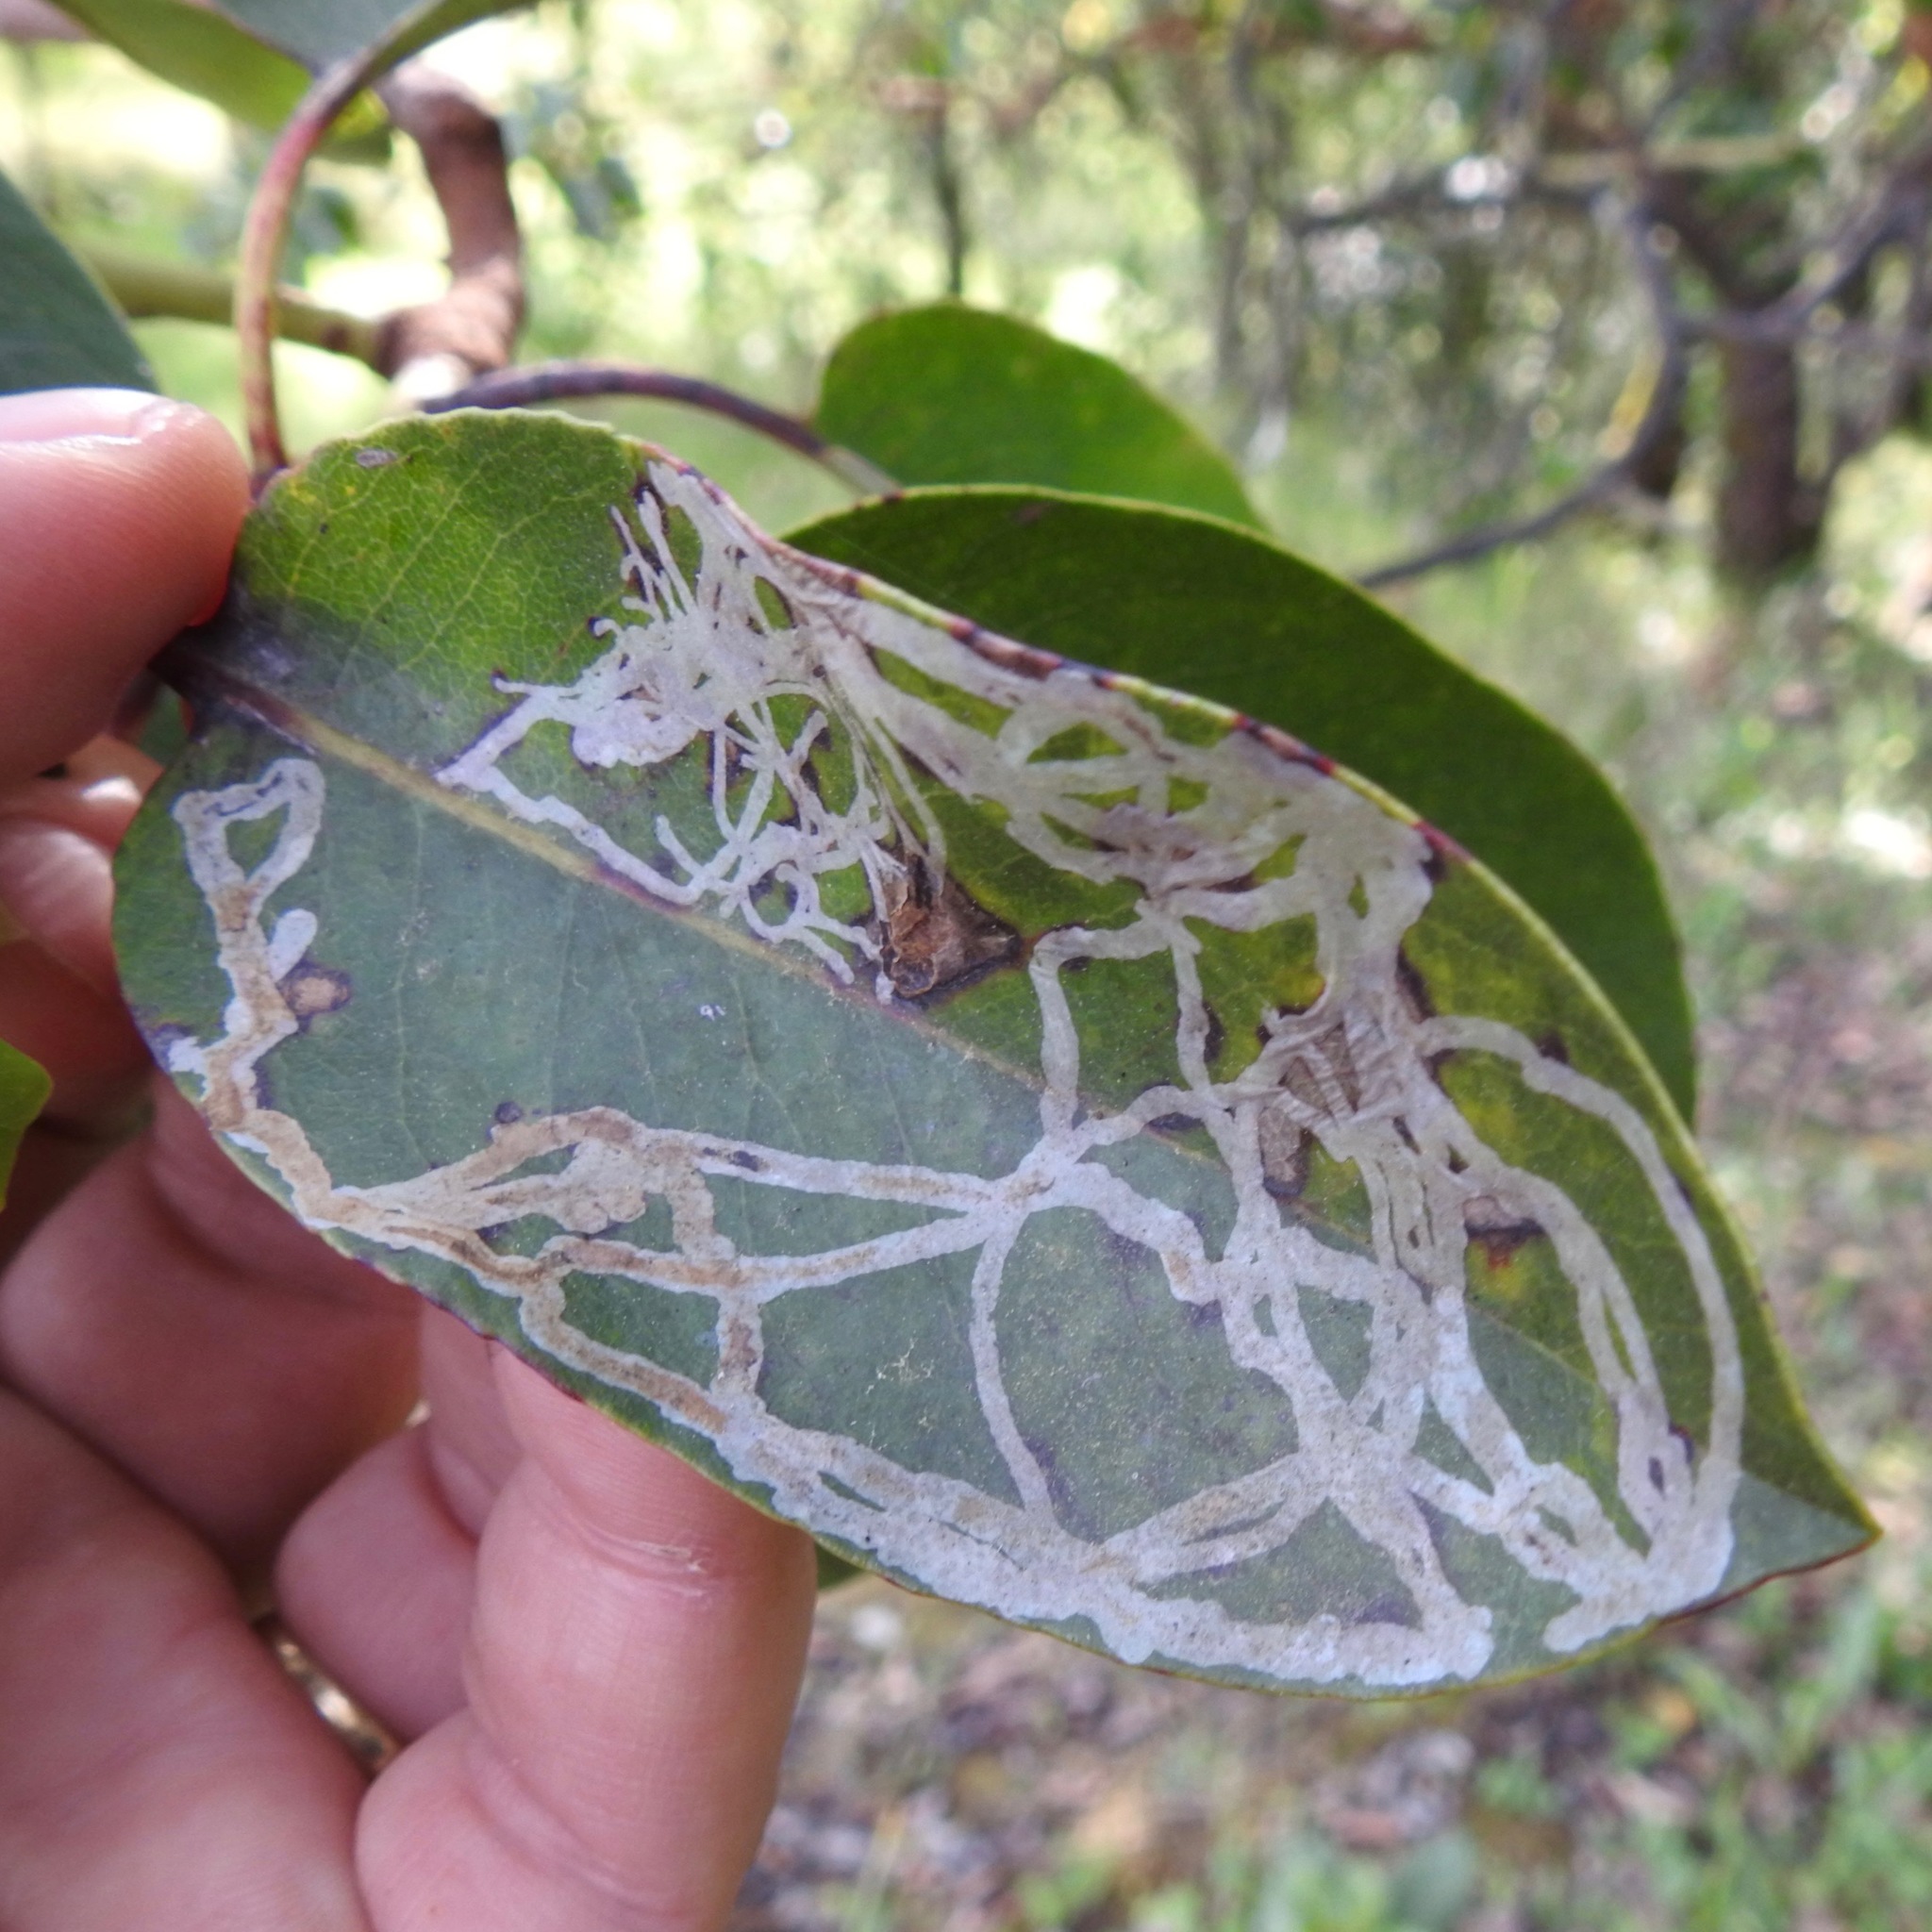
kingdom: Animalia
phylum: Arthropoda
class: Insecta
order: Lepidoptera
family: Gracillariidae
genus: Marmara
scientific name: Marmara arbutiella
